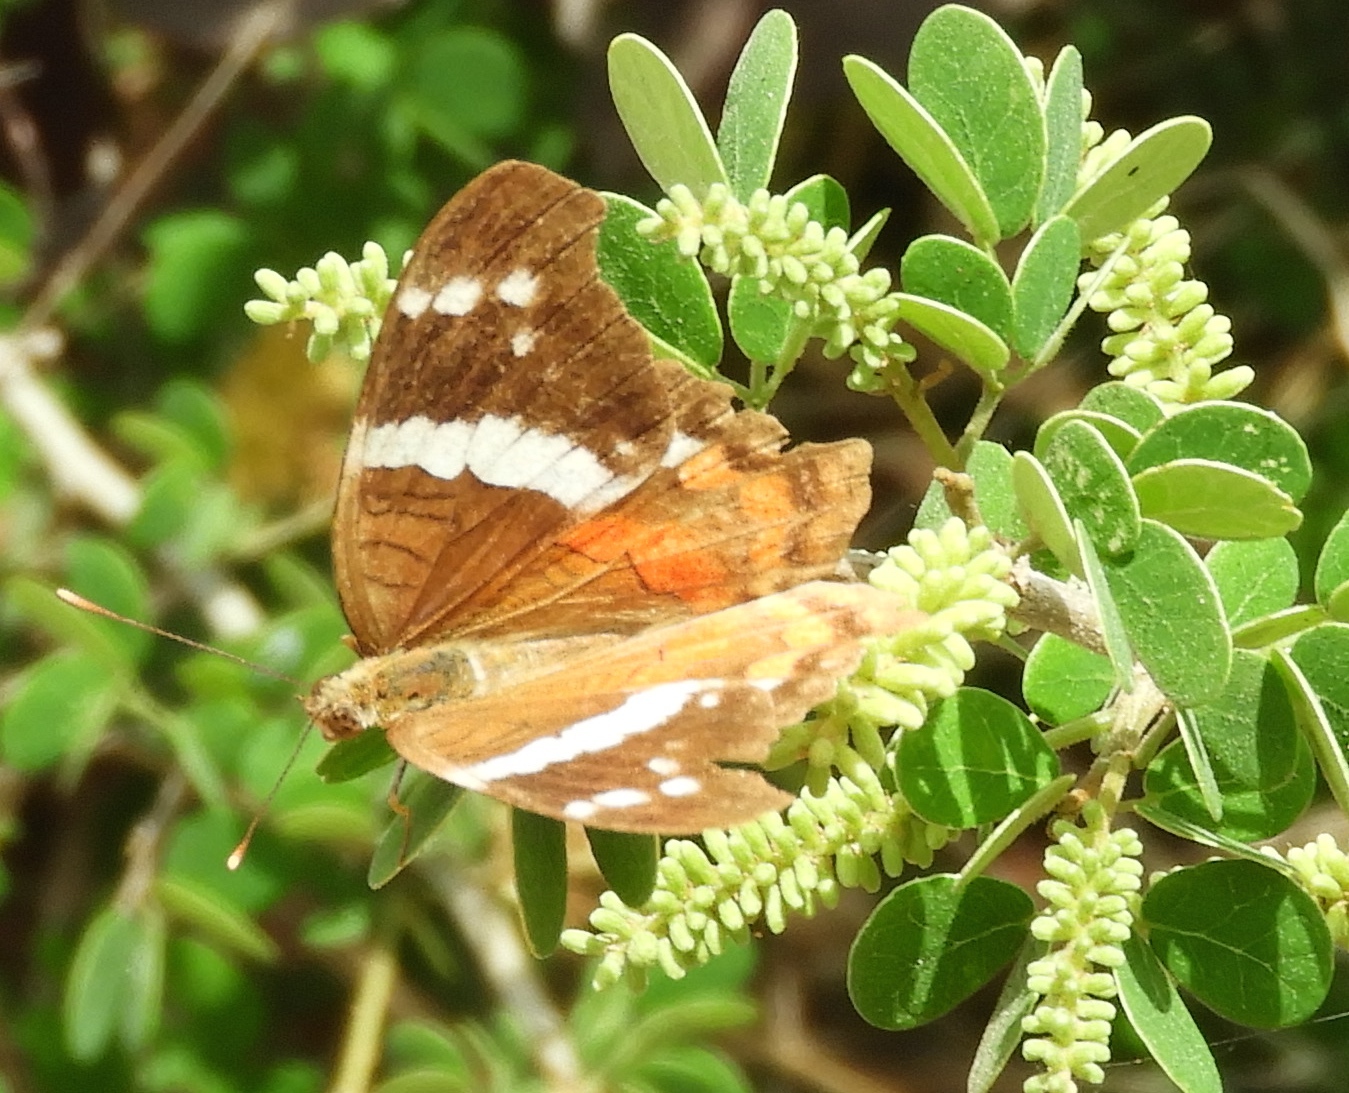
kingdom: Animalia
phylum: Arthropoda
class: Insecta
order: Lepidoptera
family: Nymphalidae
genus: Anartia
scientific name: Anartia fatima
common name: Banded peacock
